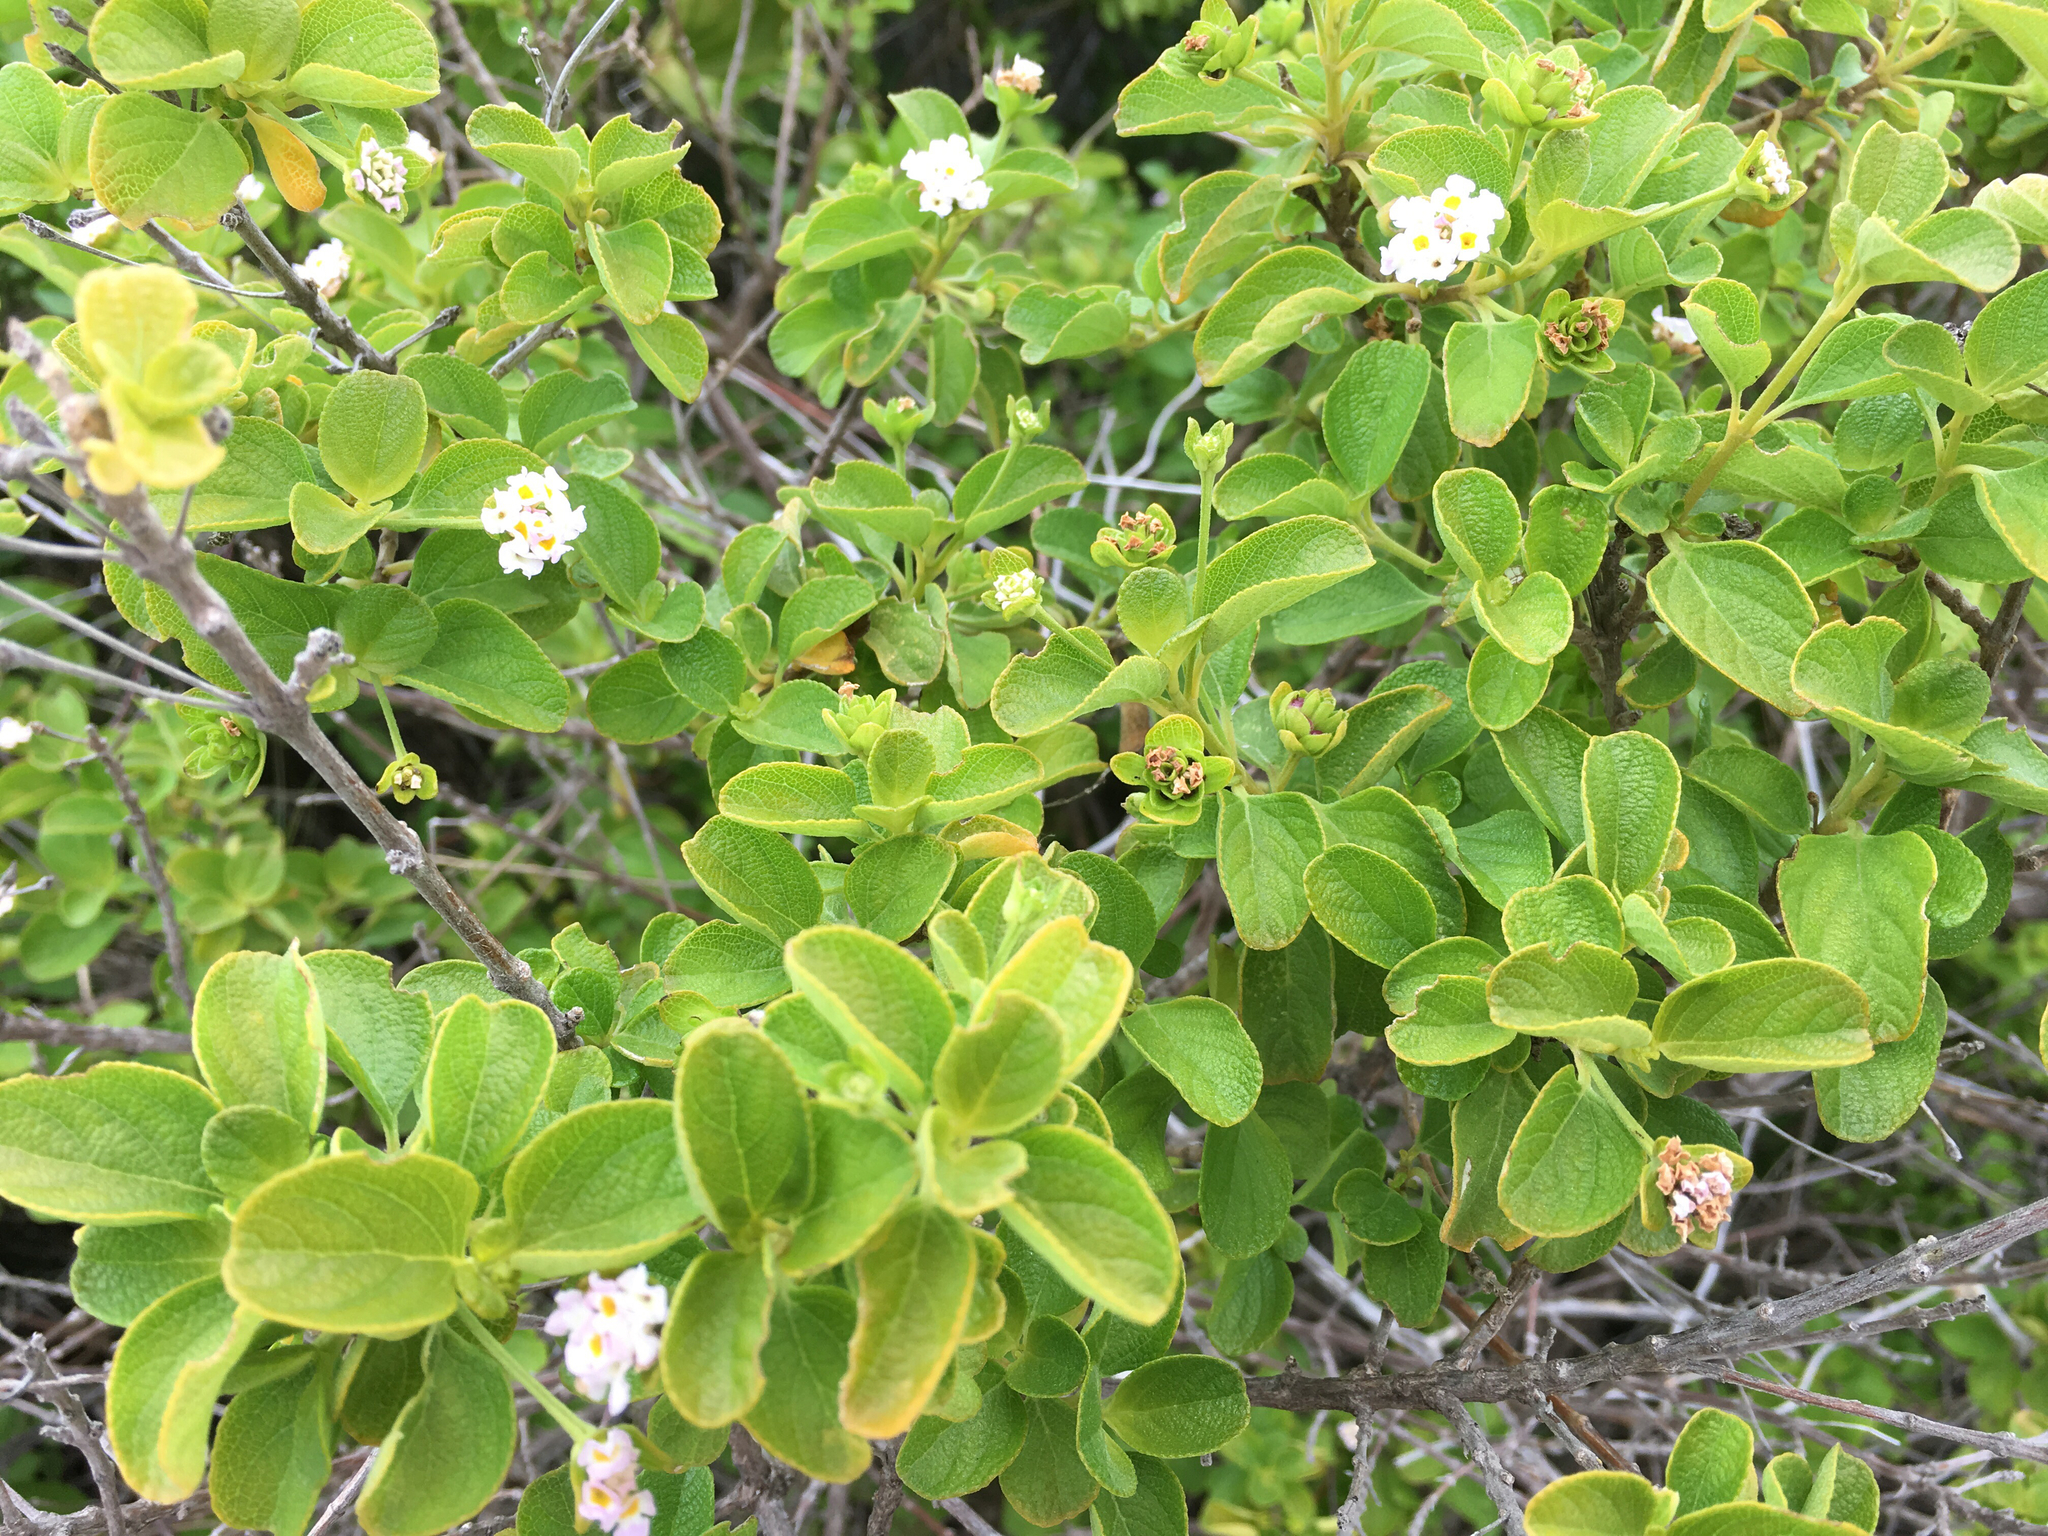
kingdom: Plantae
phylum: Tracheophyta
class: Magnoliopsida
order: Lamiales
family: Verbenaceae
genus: Lantana
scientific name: Lantana involucrata
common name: Black sage
